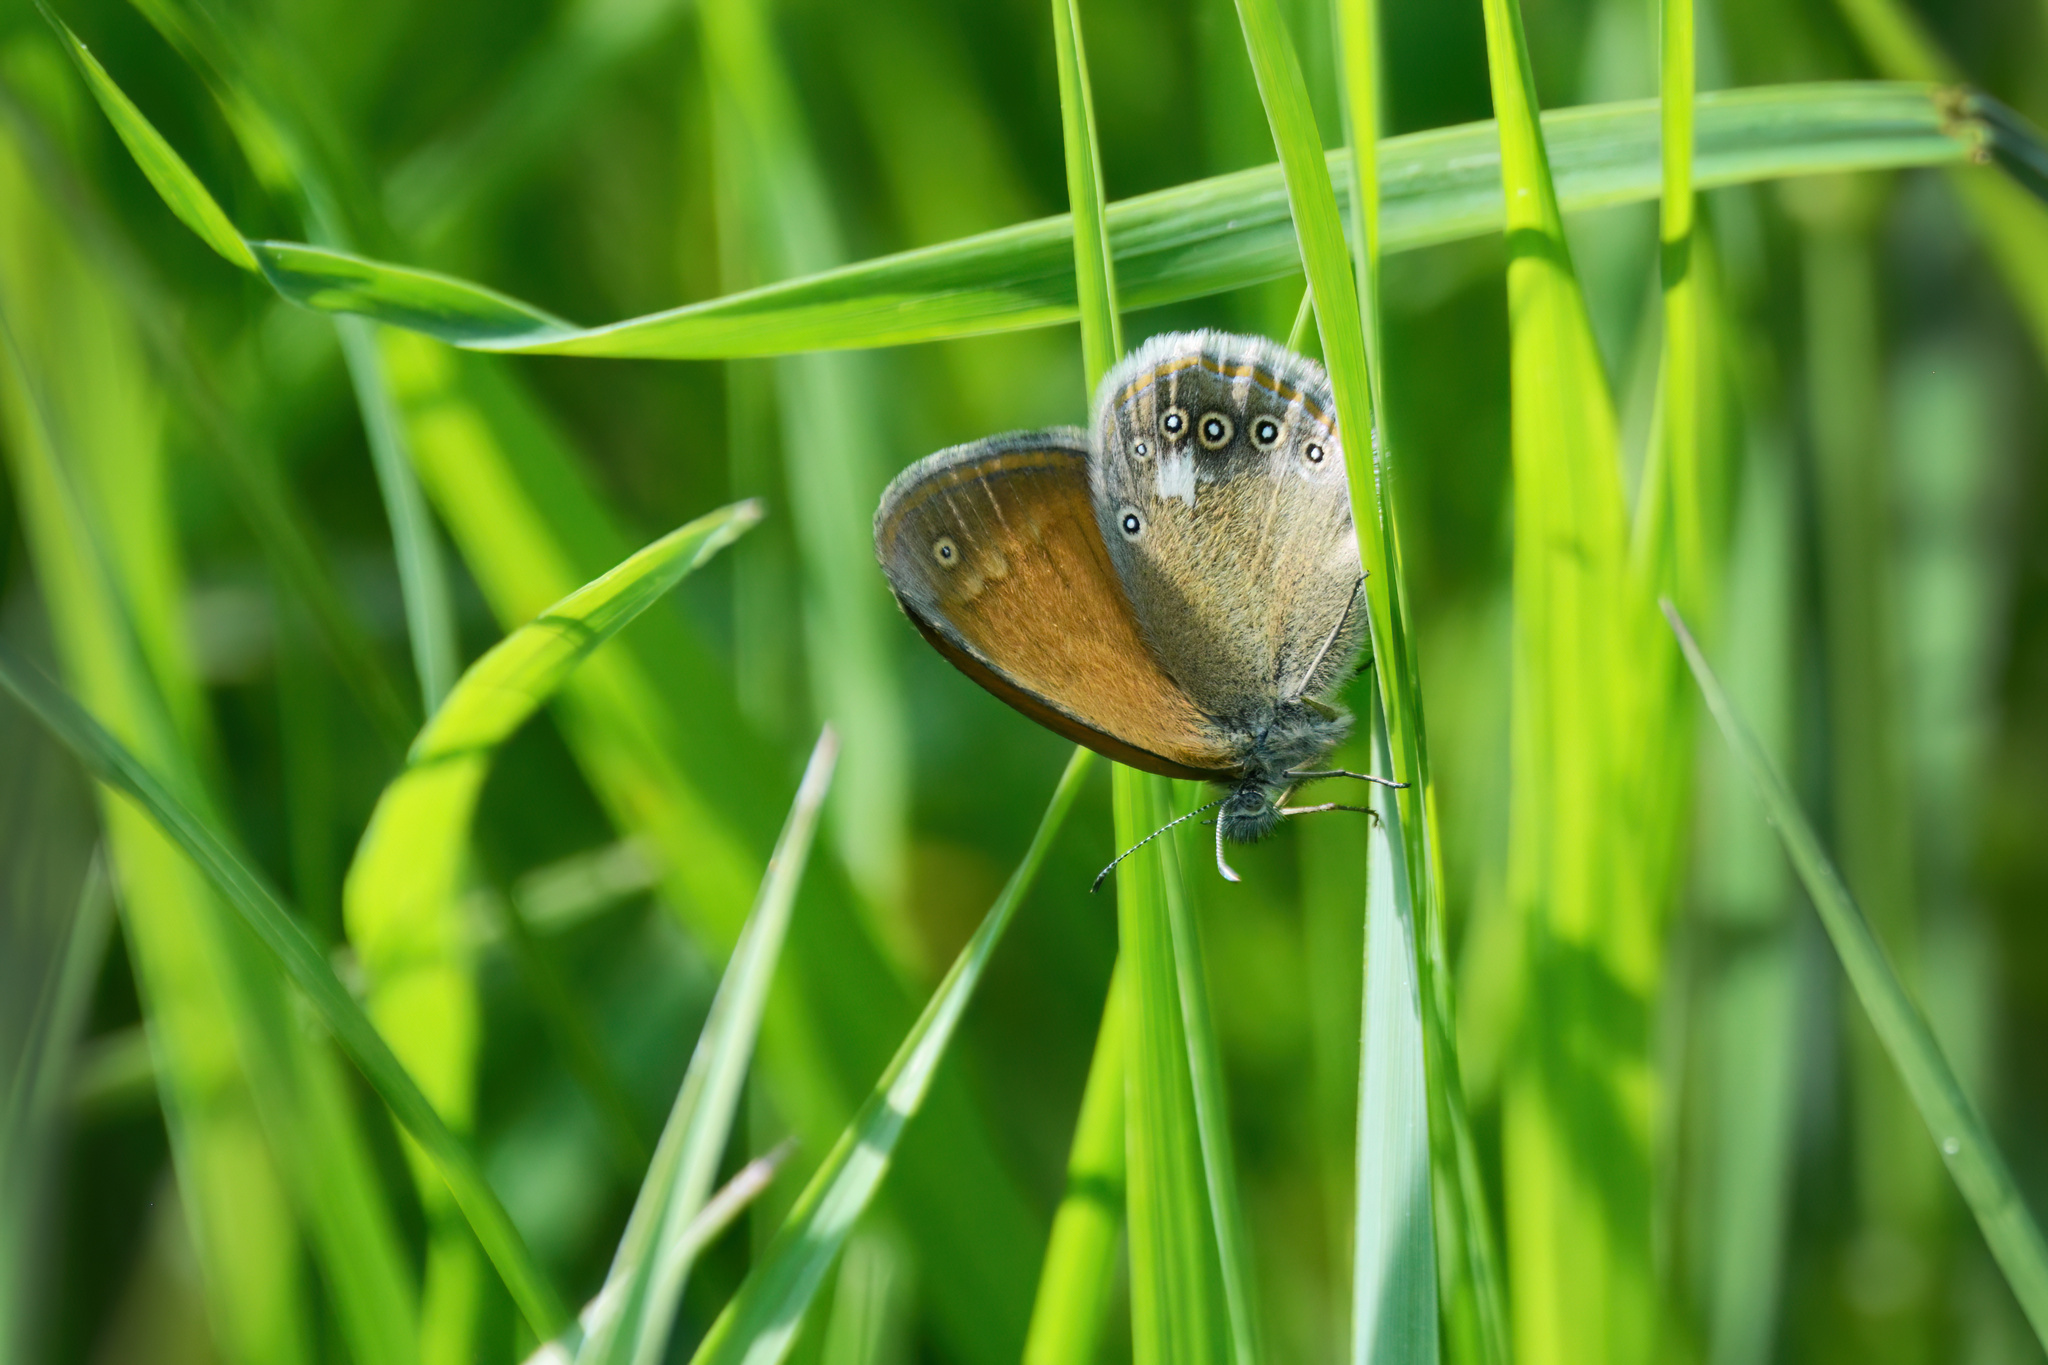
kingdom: Animalia
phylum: Arthropoda
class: Insecta
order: Lepidoptera
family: Nymphalidae
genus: Coenonympha
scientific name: Coenonympha iphis
